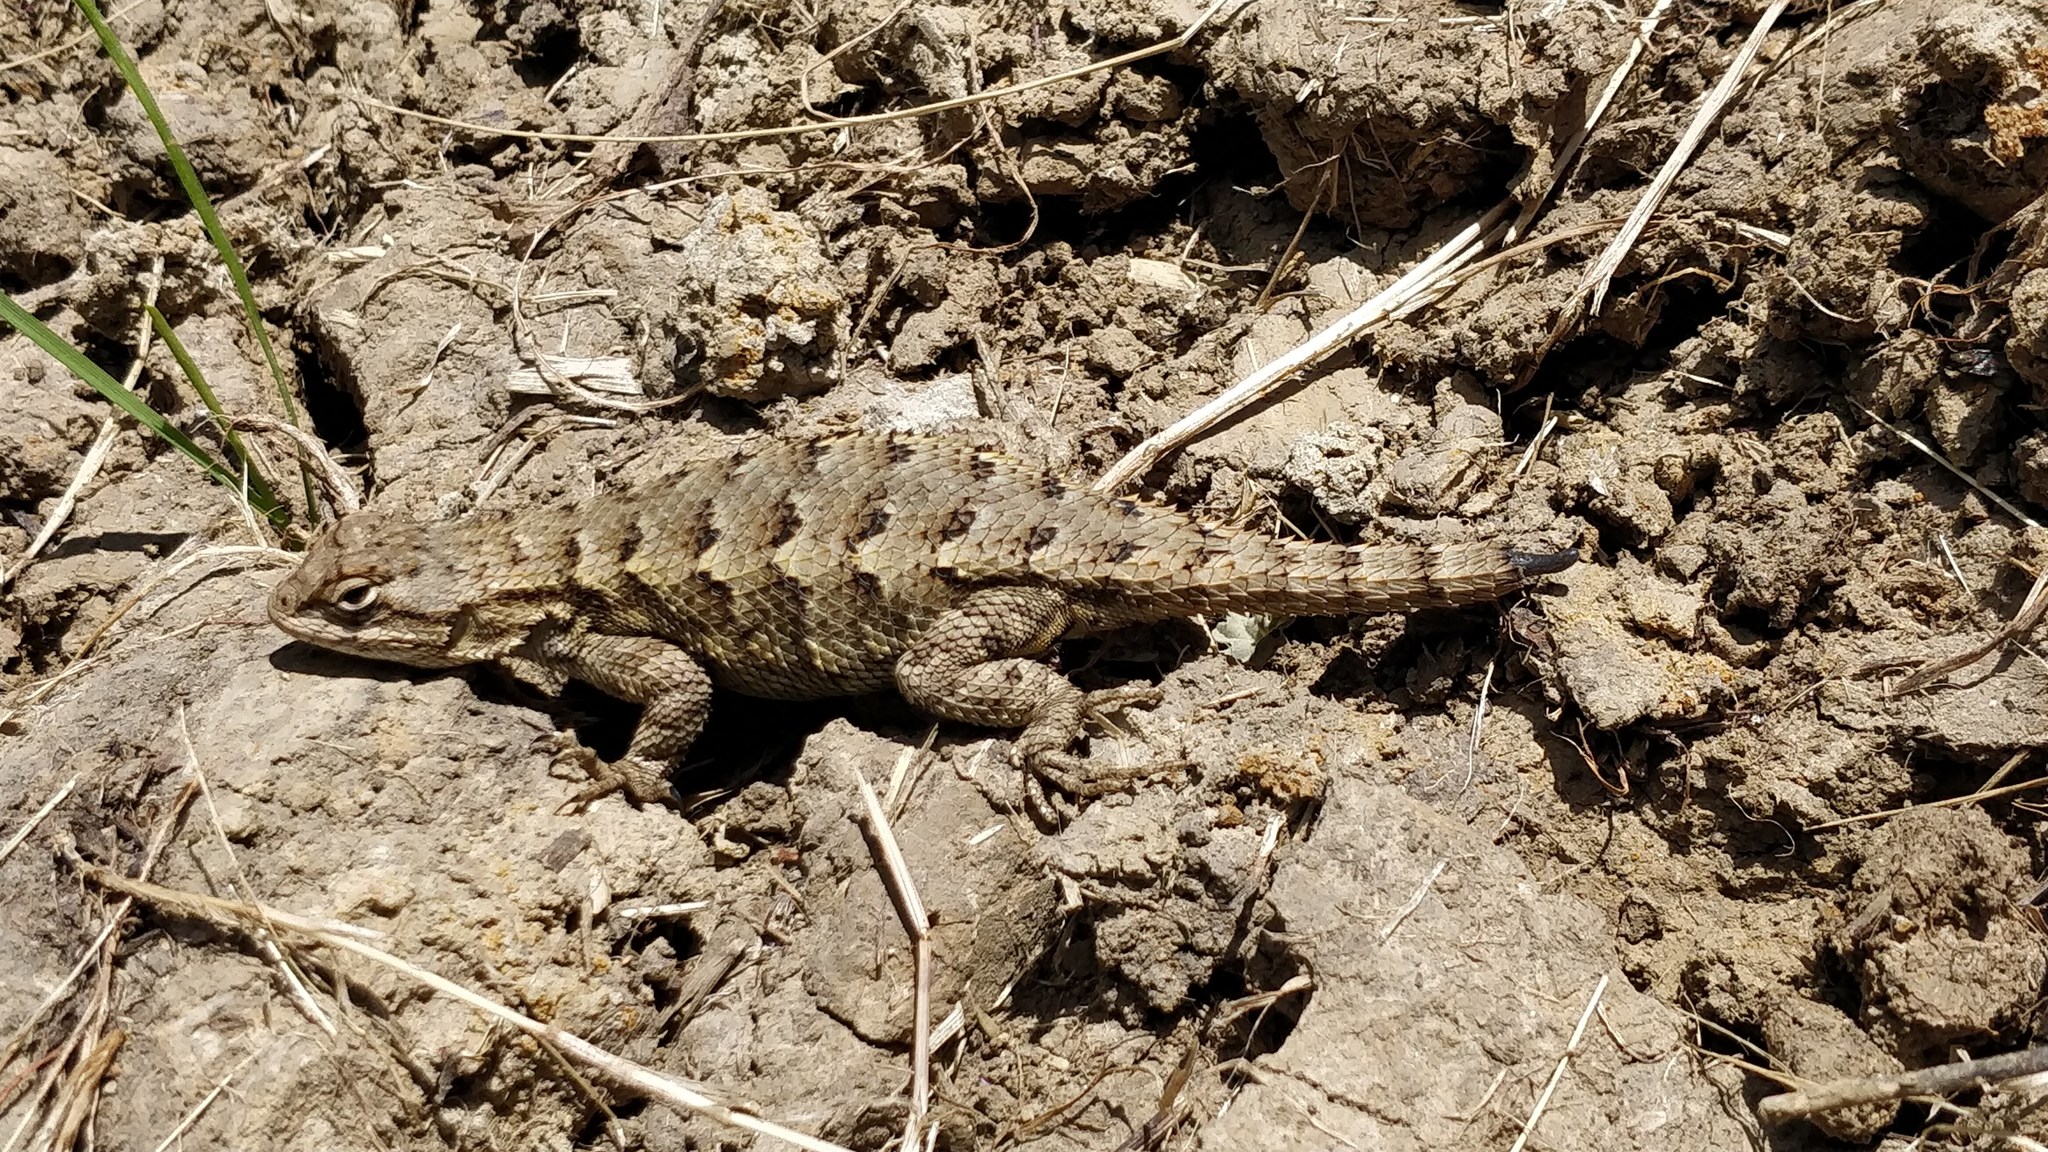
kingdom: Animalia
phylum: Chordata
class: Squamata
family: Phrynosomatidae
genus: Sceloporus
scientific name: Sceloporus occidentalis
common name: Western fence lizard
